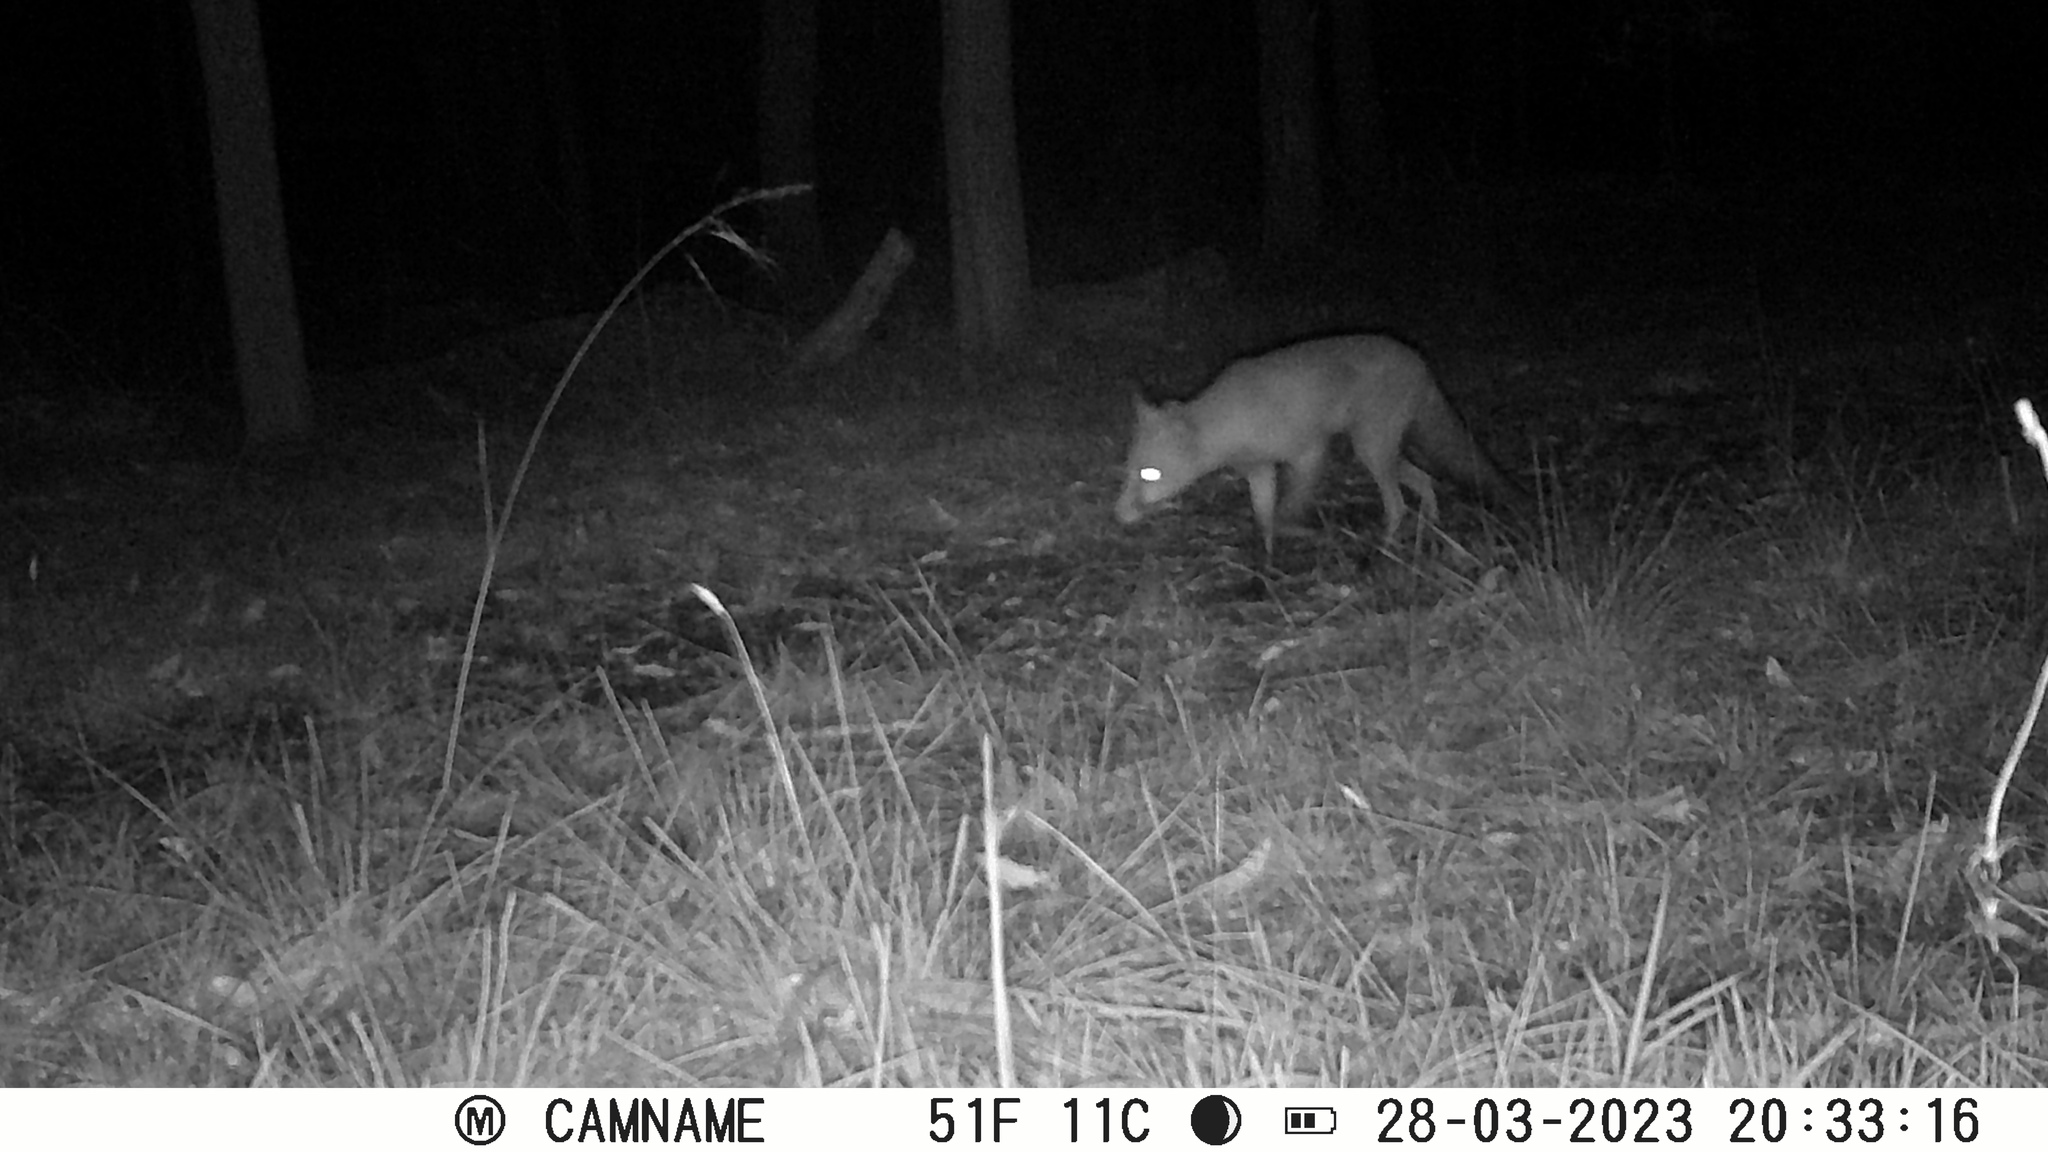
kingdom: Animalia
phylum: Chordata
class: Mammalia
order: Carnivora
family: Canidae
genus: Vulpes
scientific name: Vulpes vulpes
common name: Red fox
